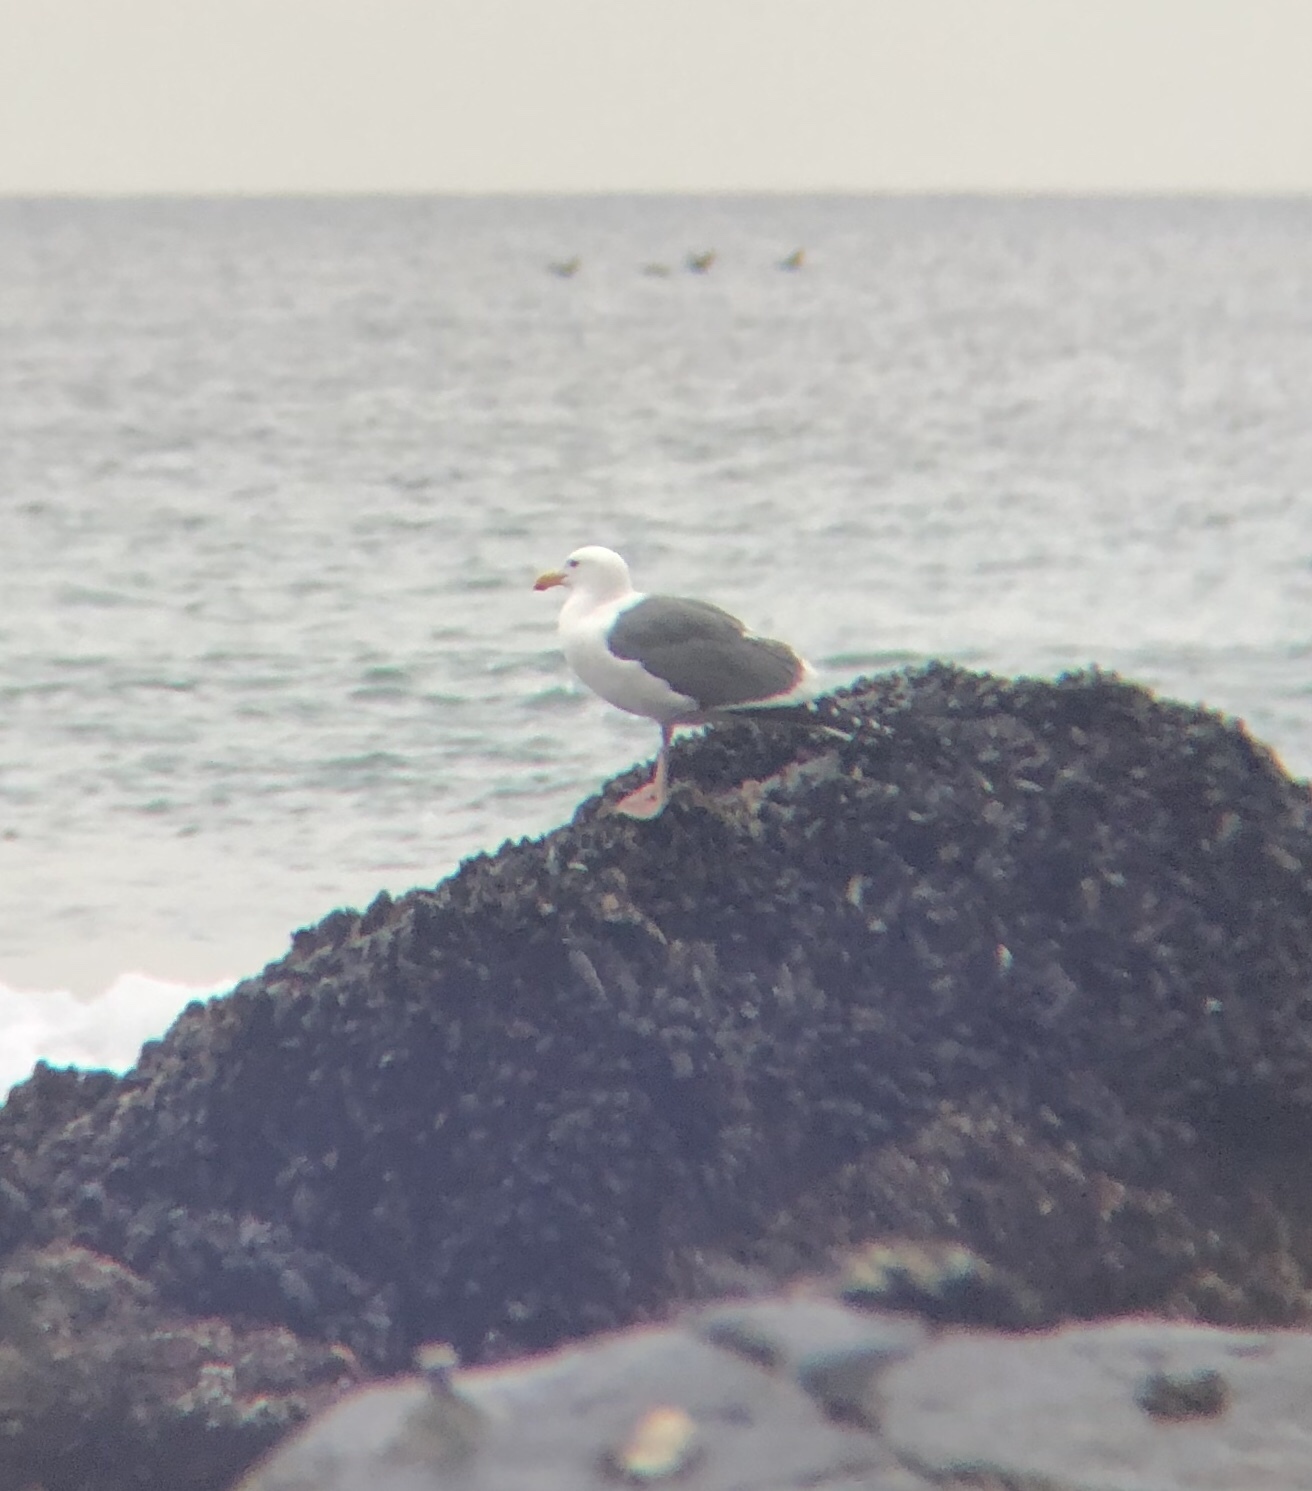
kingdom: Animalia
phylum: Chordata
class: Aves
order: Charadriiformes
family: Laridae
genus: Larus
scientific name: Larus occidentalis
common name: Western gull
